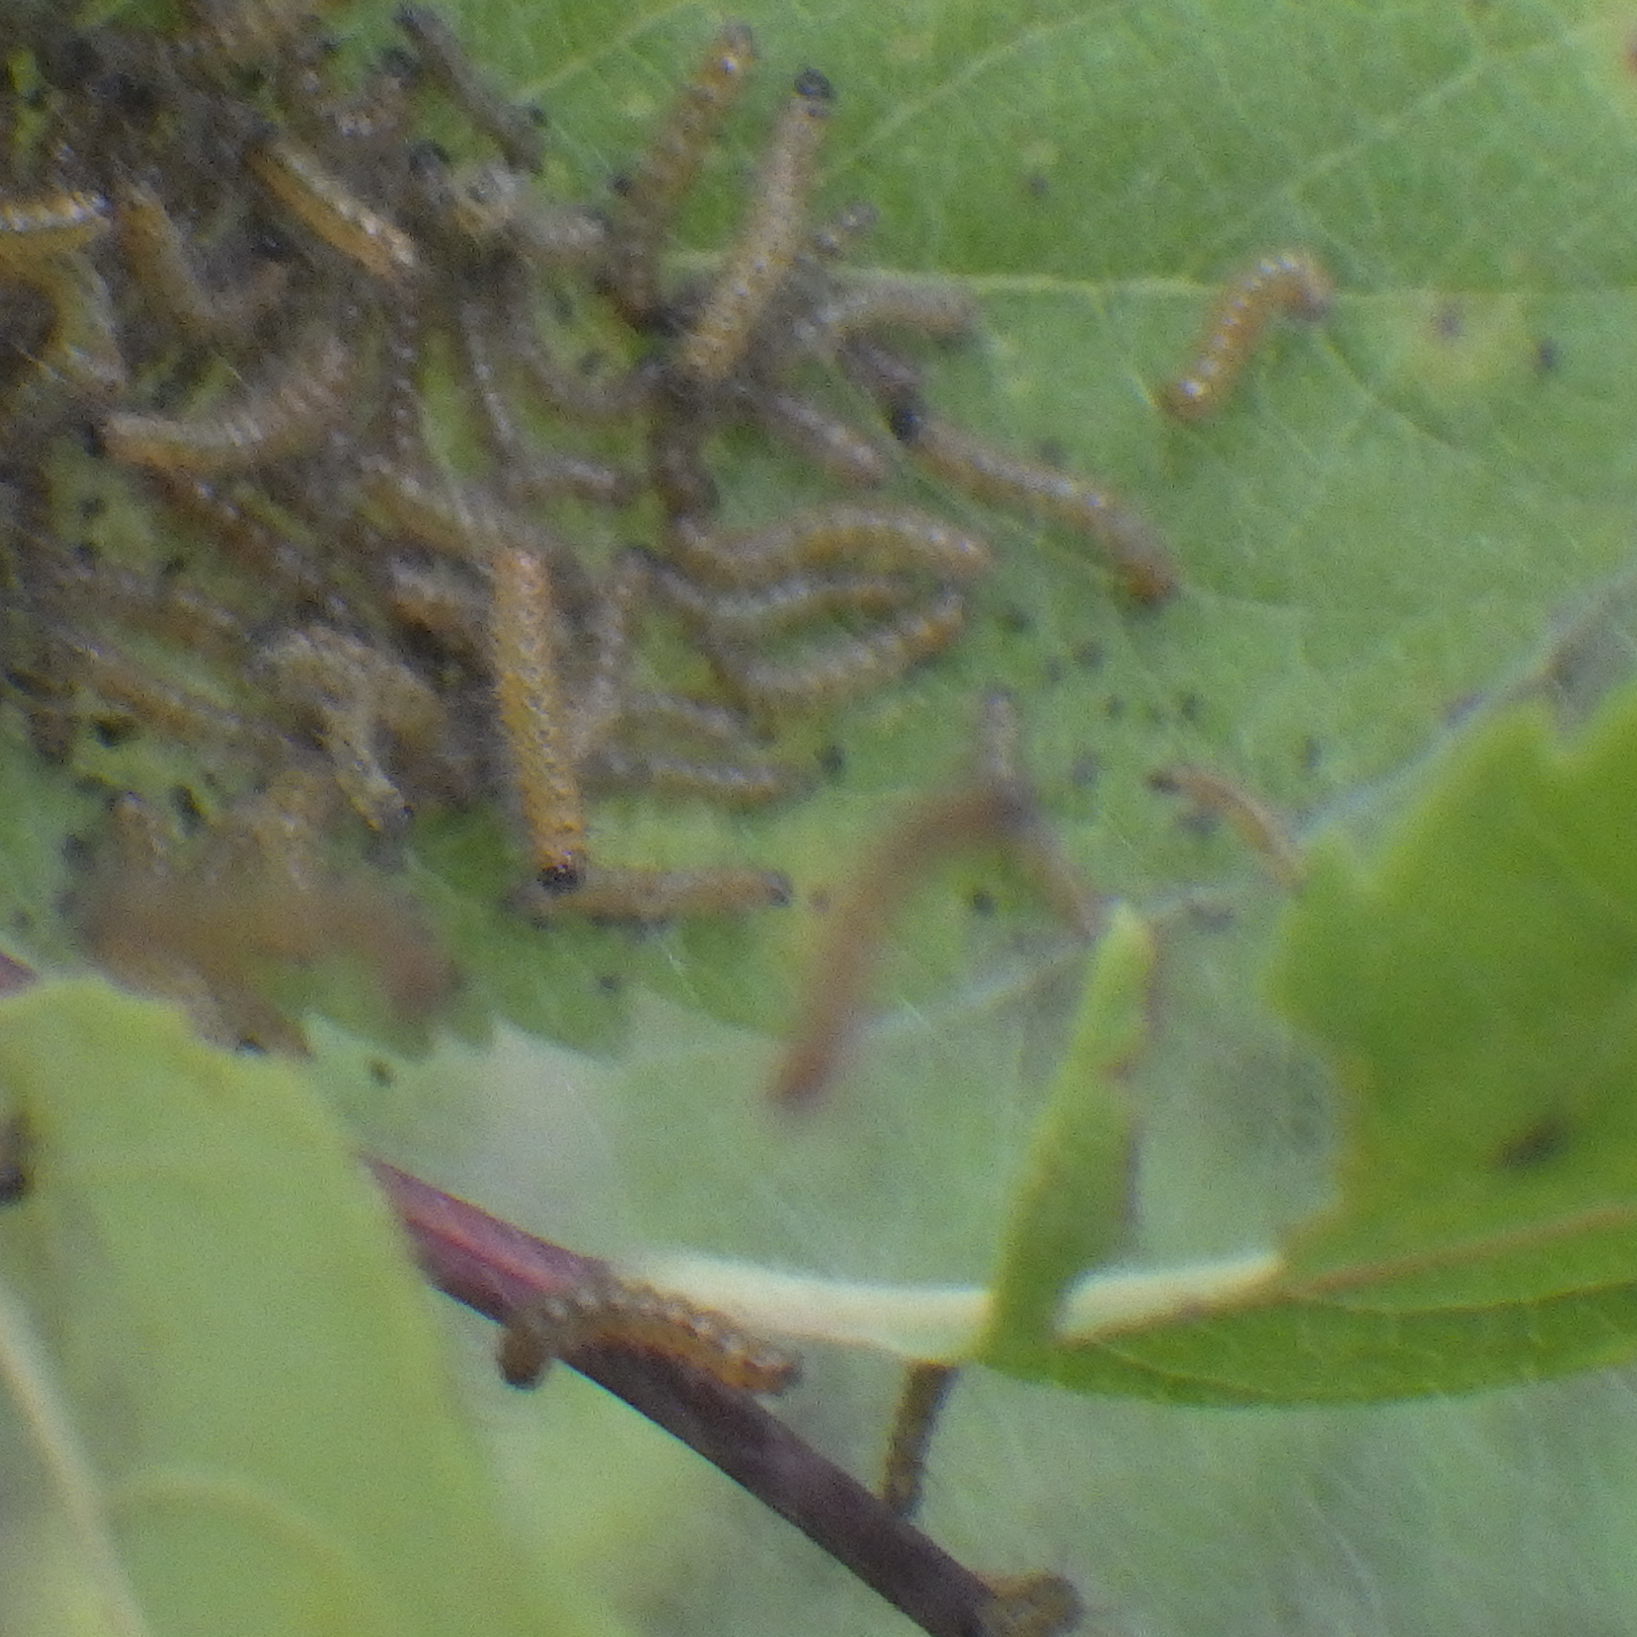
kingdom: Animalia
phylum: Arthropoda
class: Insecta
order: Lepidoptera
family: Erebidae
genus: Hyphantria
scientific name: Hyphantria cunea
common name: American white moth
